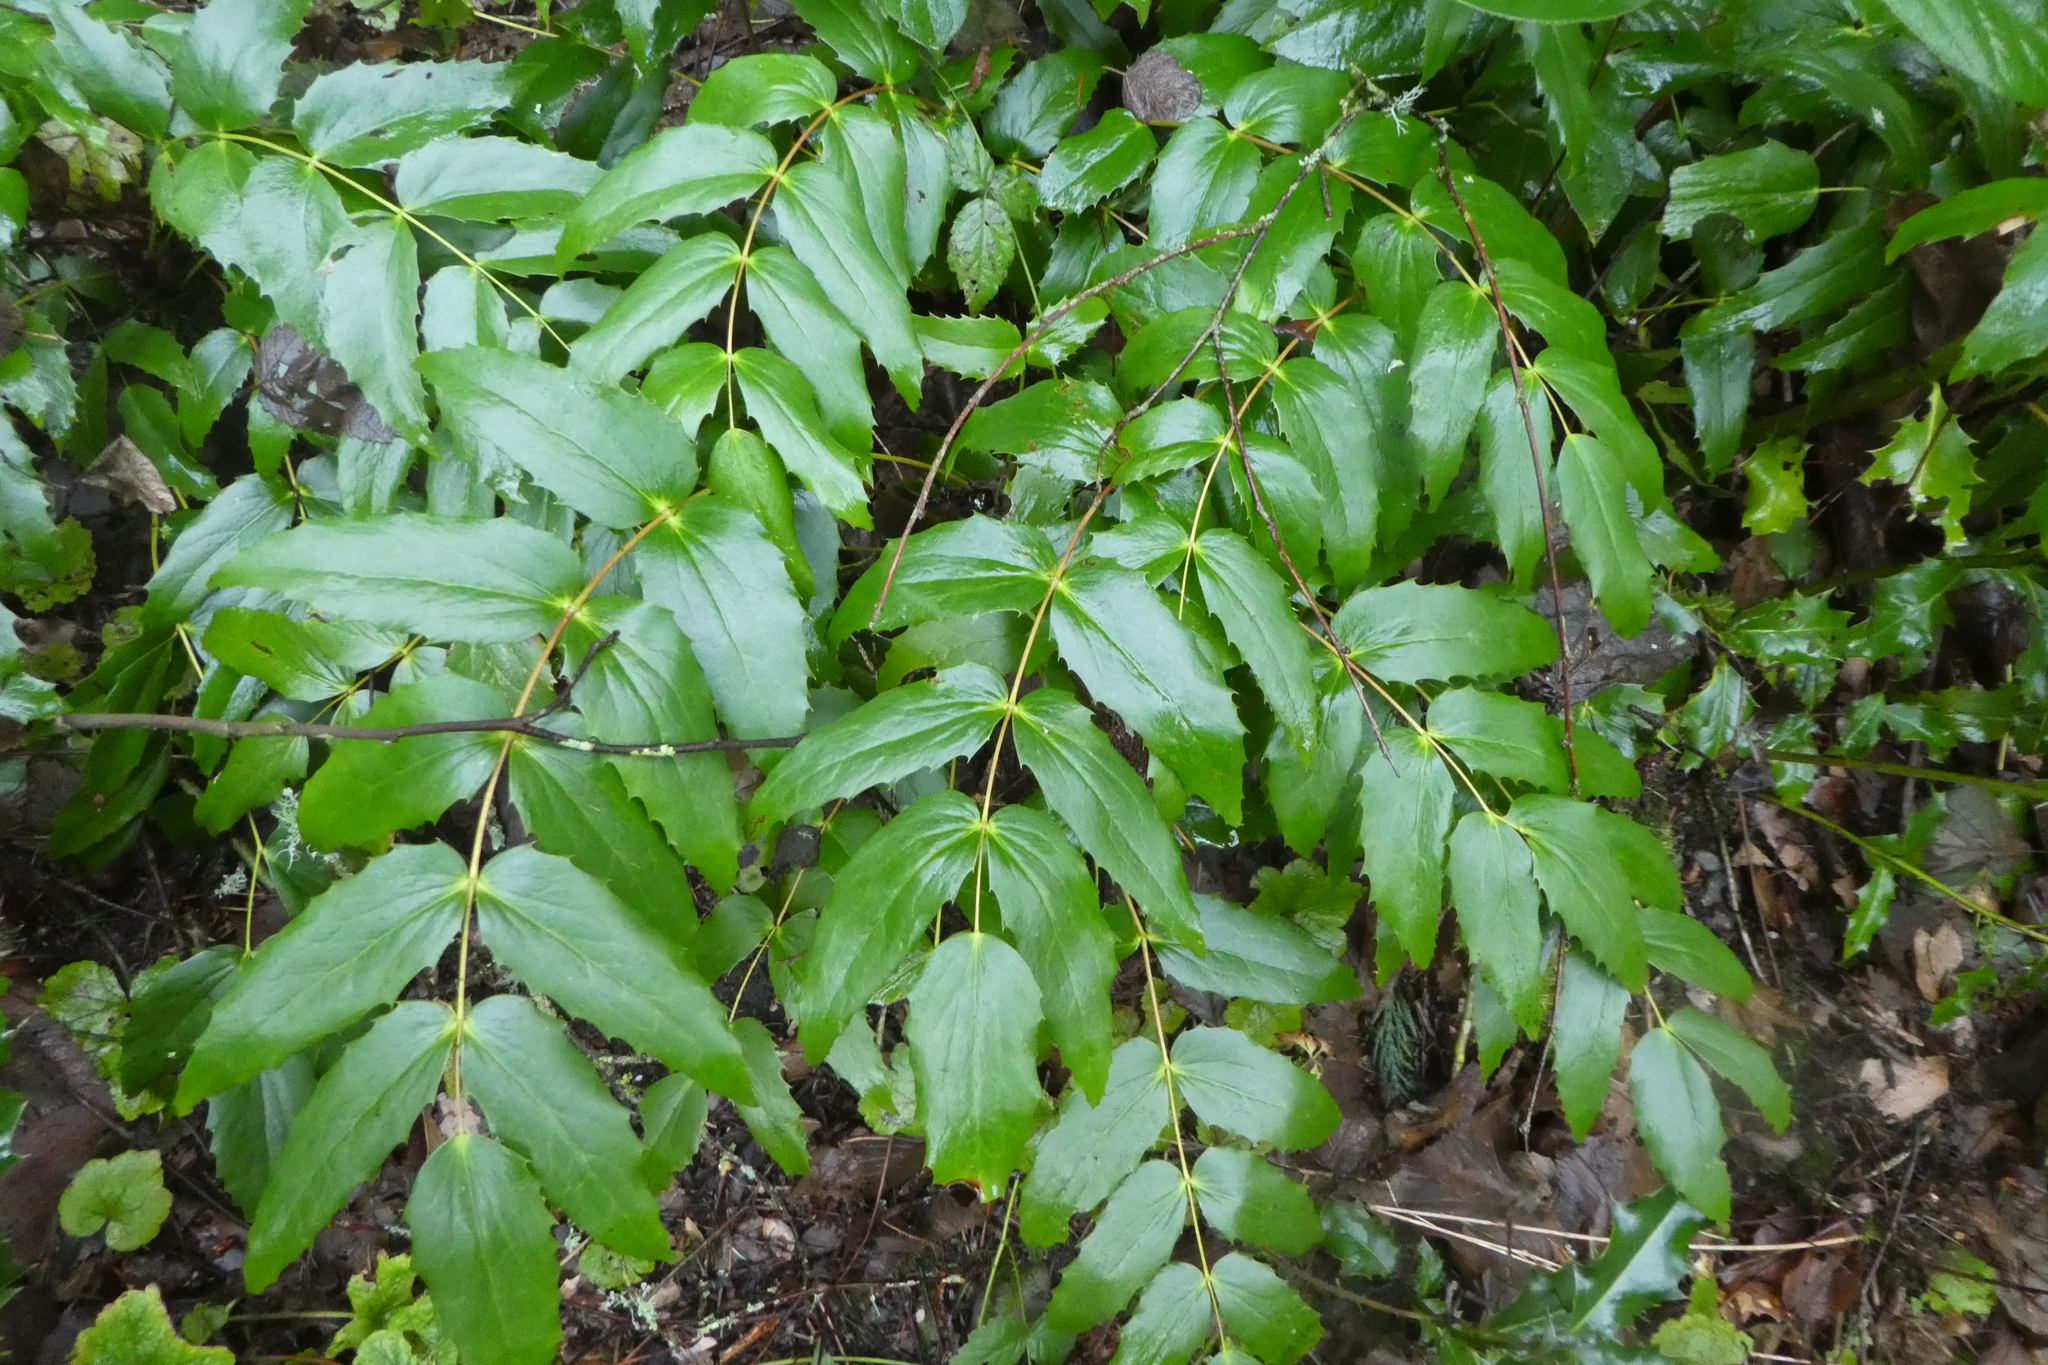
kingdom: Plantae
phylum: Tracheophyta
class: Magnoliopsida
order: Ranunculales
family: Berberidaceae
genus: Mahonia
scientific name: Mahonia nervosa
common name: Cascade oregon-grape
